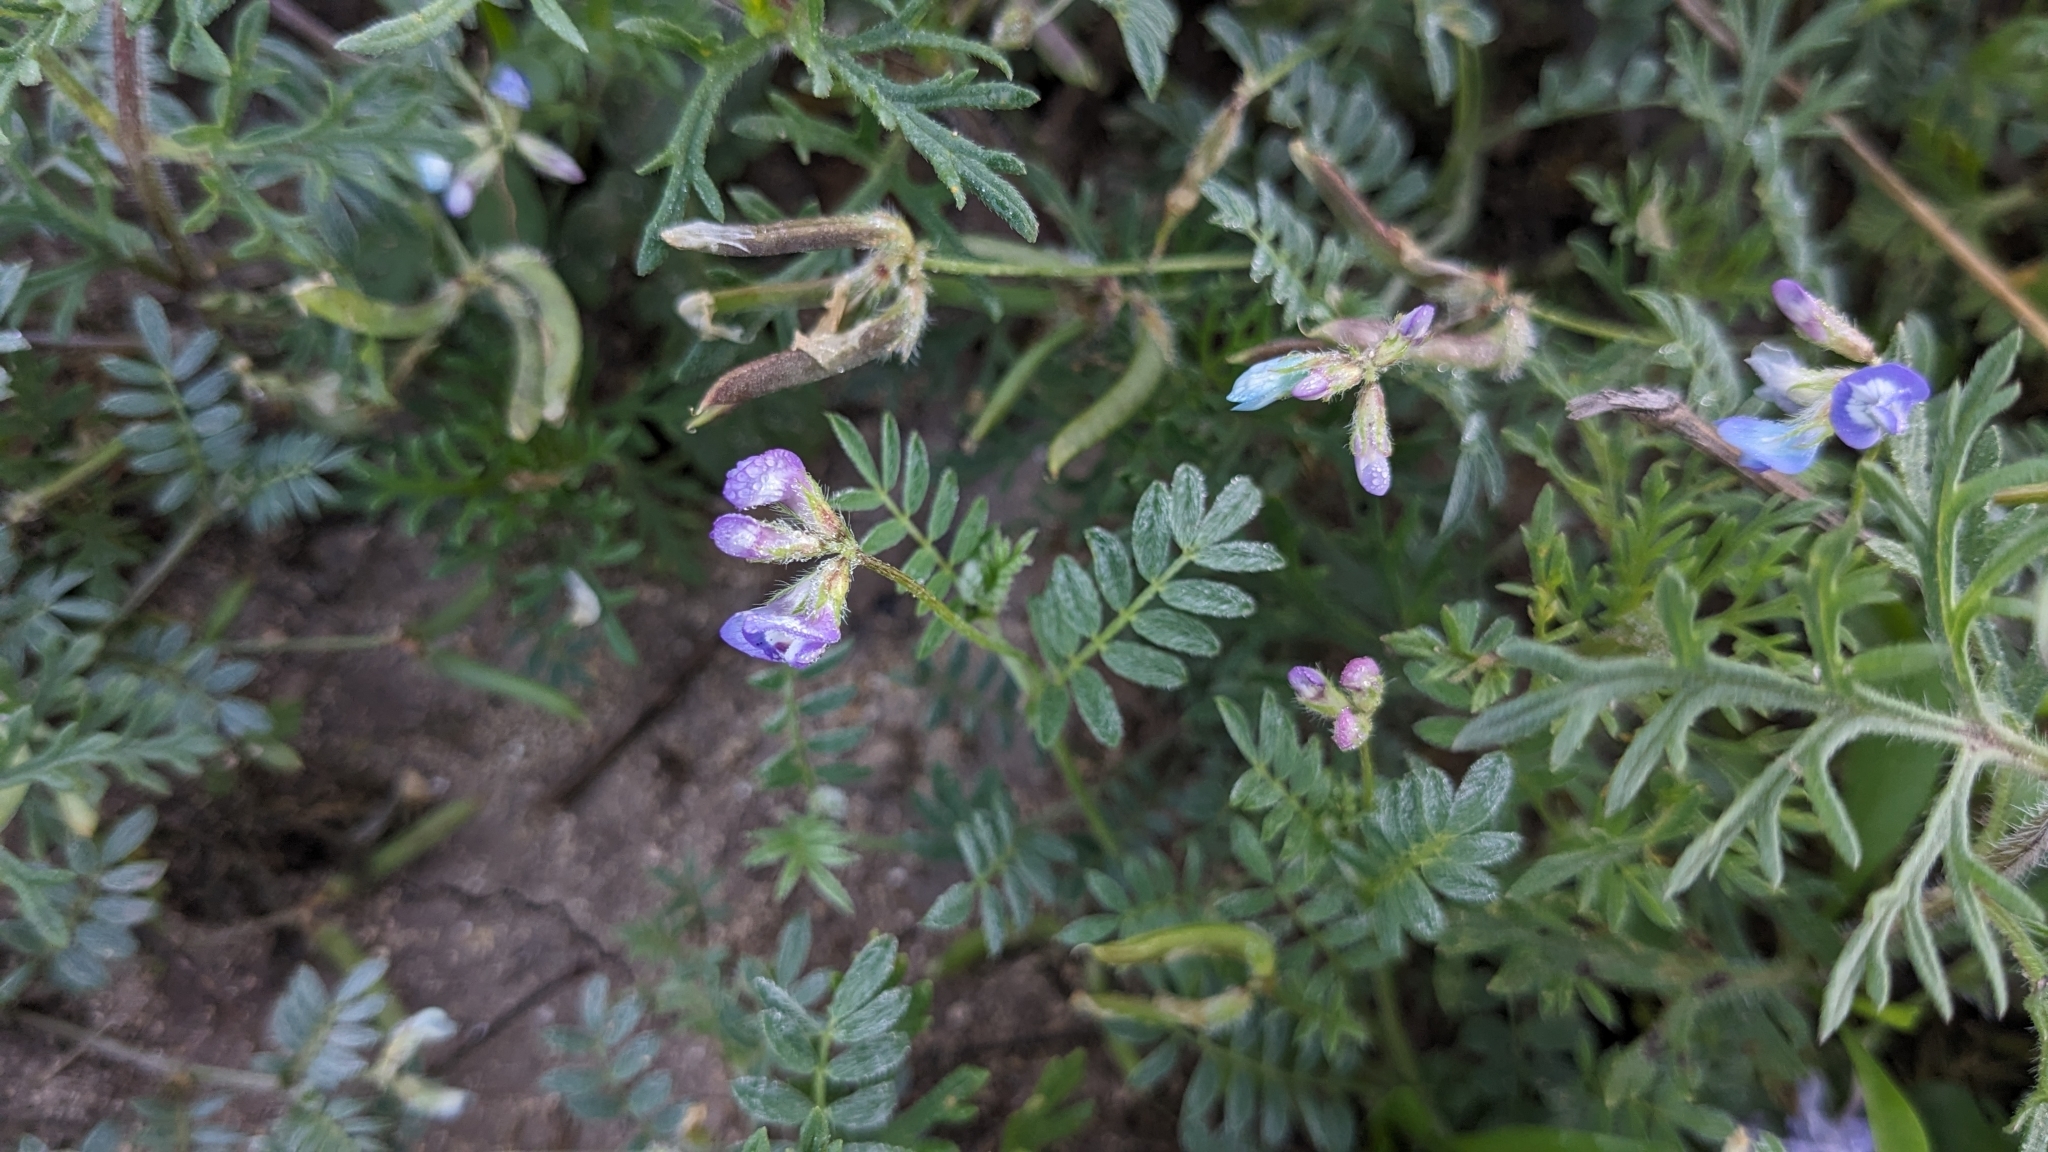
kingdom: Plantae
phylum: Tracheophyta
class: Magnoliopsida
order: Fabales
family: Fabaceae
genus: Astragalus
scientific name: Astragalus nuttallianus
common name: Smallflowered milkvetch
